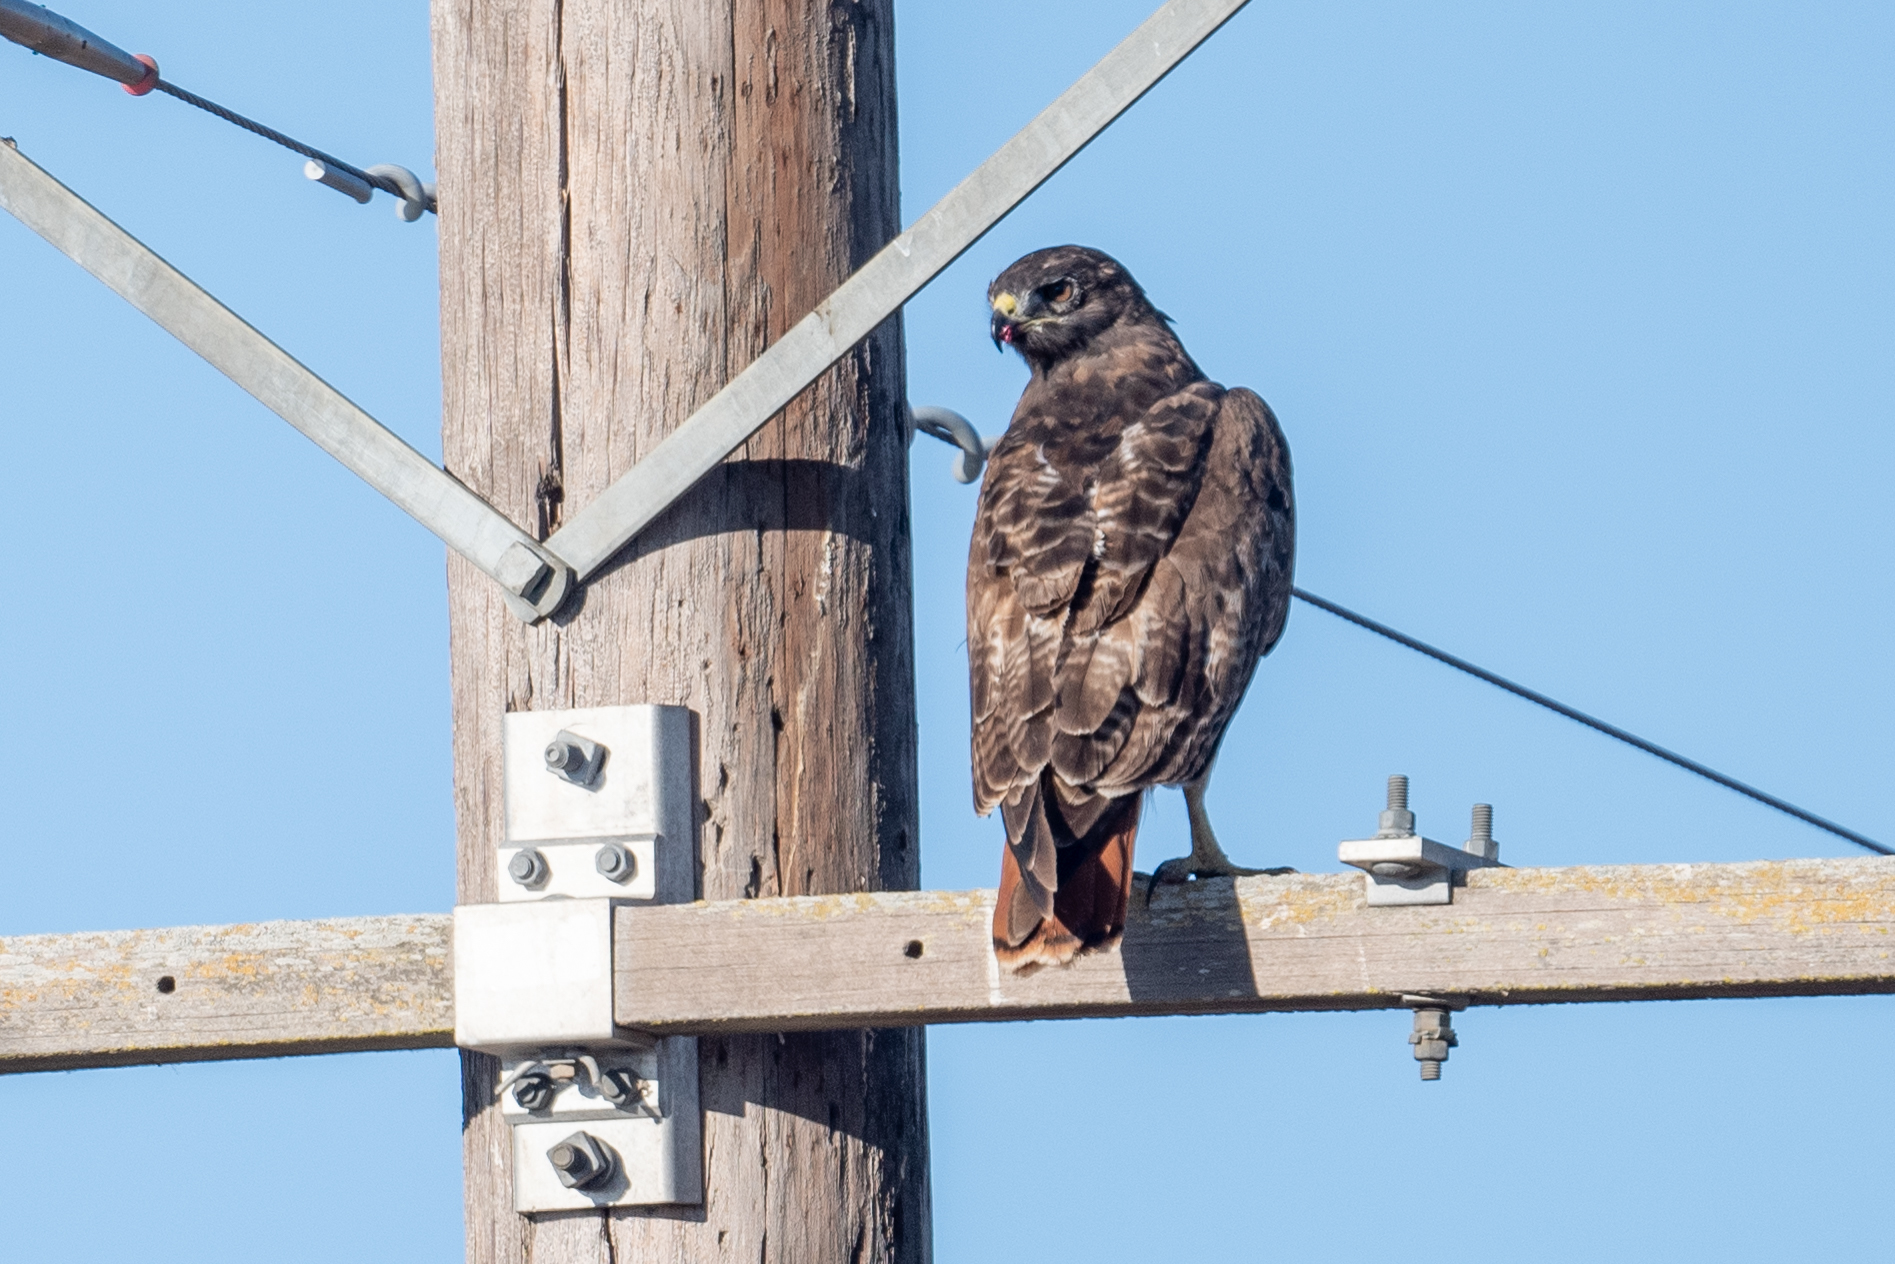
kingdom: Animalia
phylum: Chordata
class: Aves
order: Accipitriformes
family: Accipitridae
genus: Buteo
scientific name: Buteo jamaicensis
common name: Red-tailed hawk
